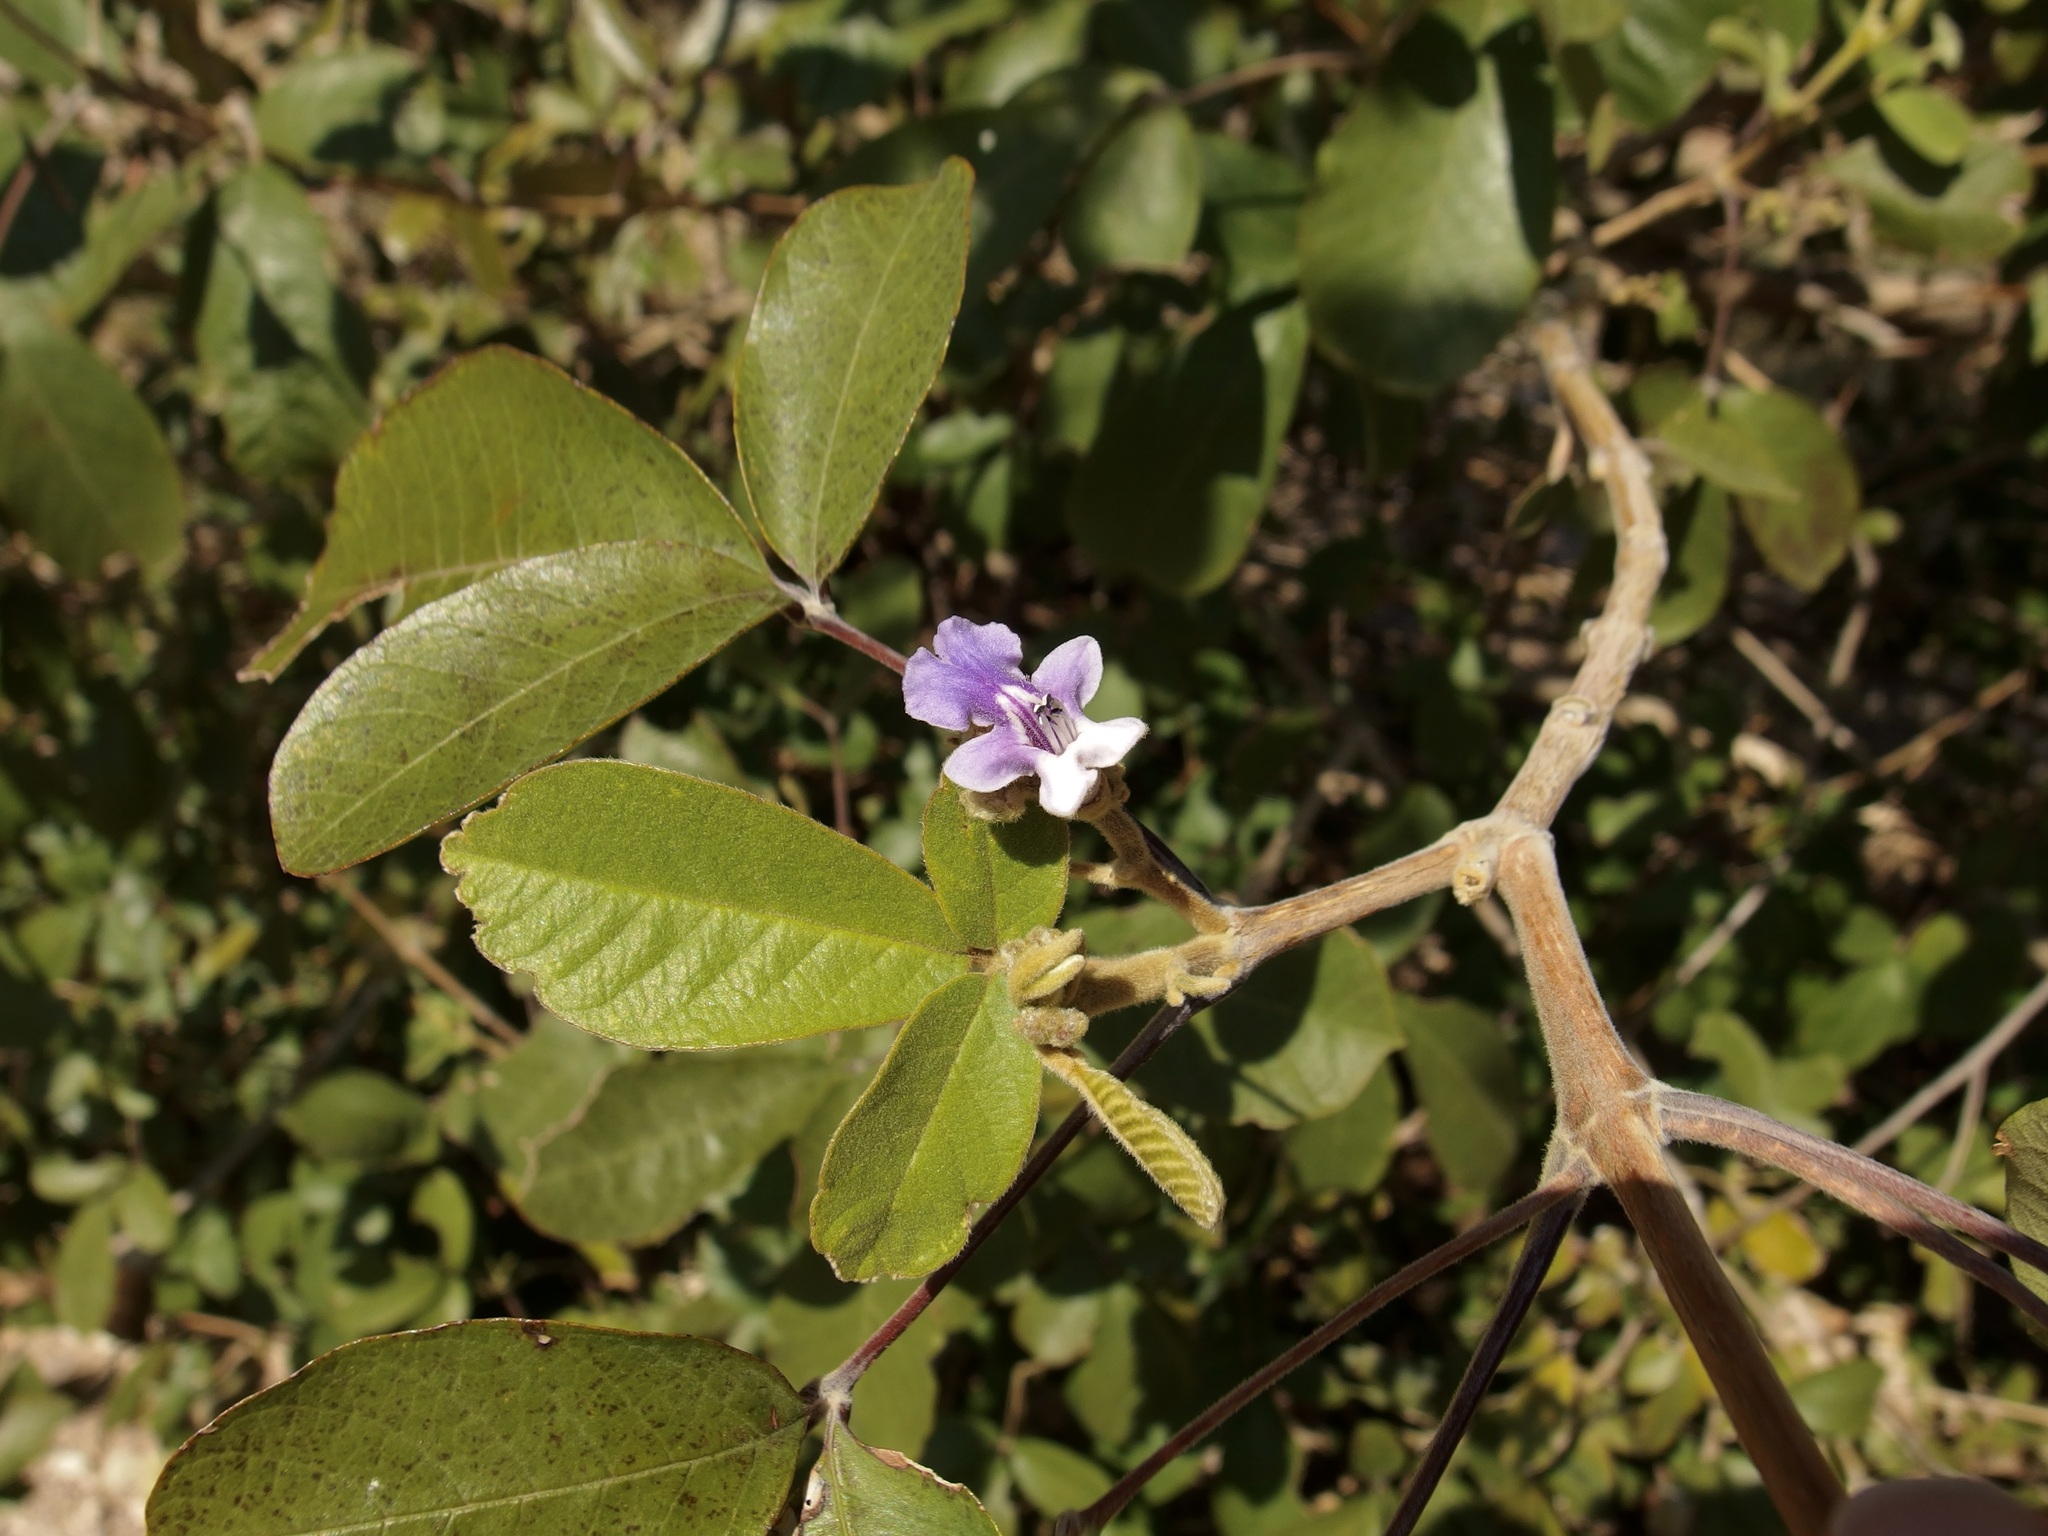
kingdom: Plantae
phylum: Tracheophyta
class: Magnoliopsida
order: Lamiales
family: Lamiaceae
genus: Vitex
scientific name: Vitex mollis
